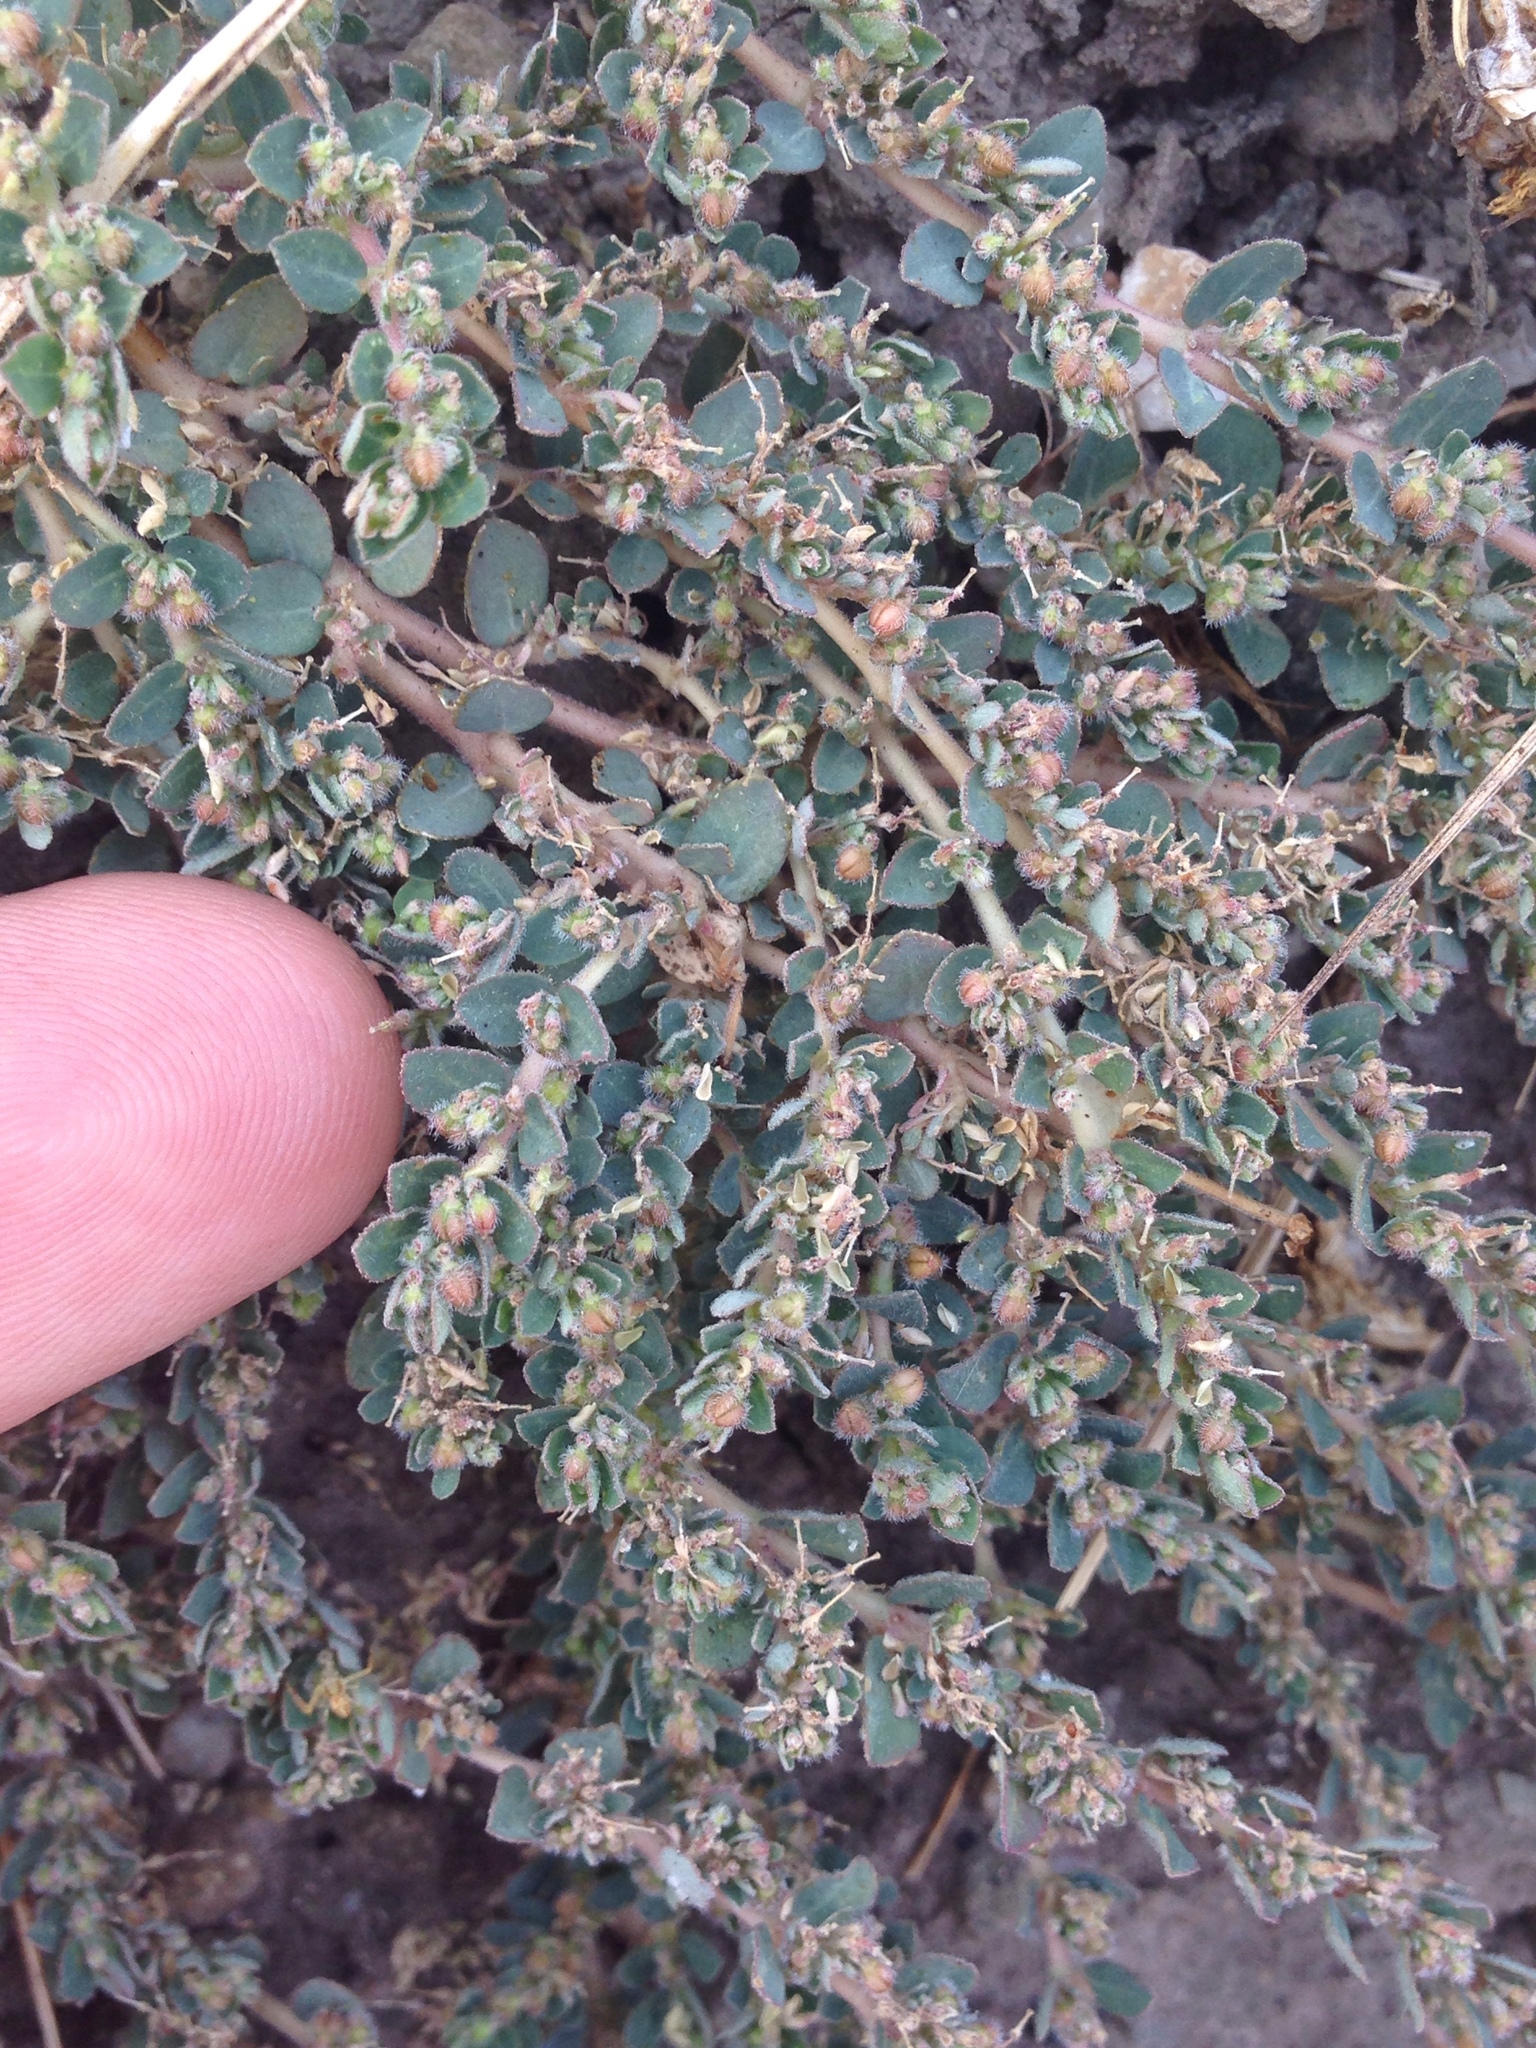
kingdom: Plantae
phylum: Tracheophyta
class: Magnoliopsida
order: Malpighiales
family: Euphorbiaceae
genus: Euphorbia
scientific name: Euphorbia prostrata
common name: Prostrate sandmat
